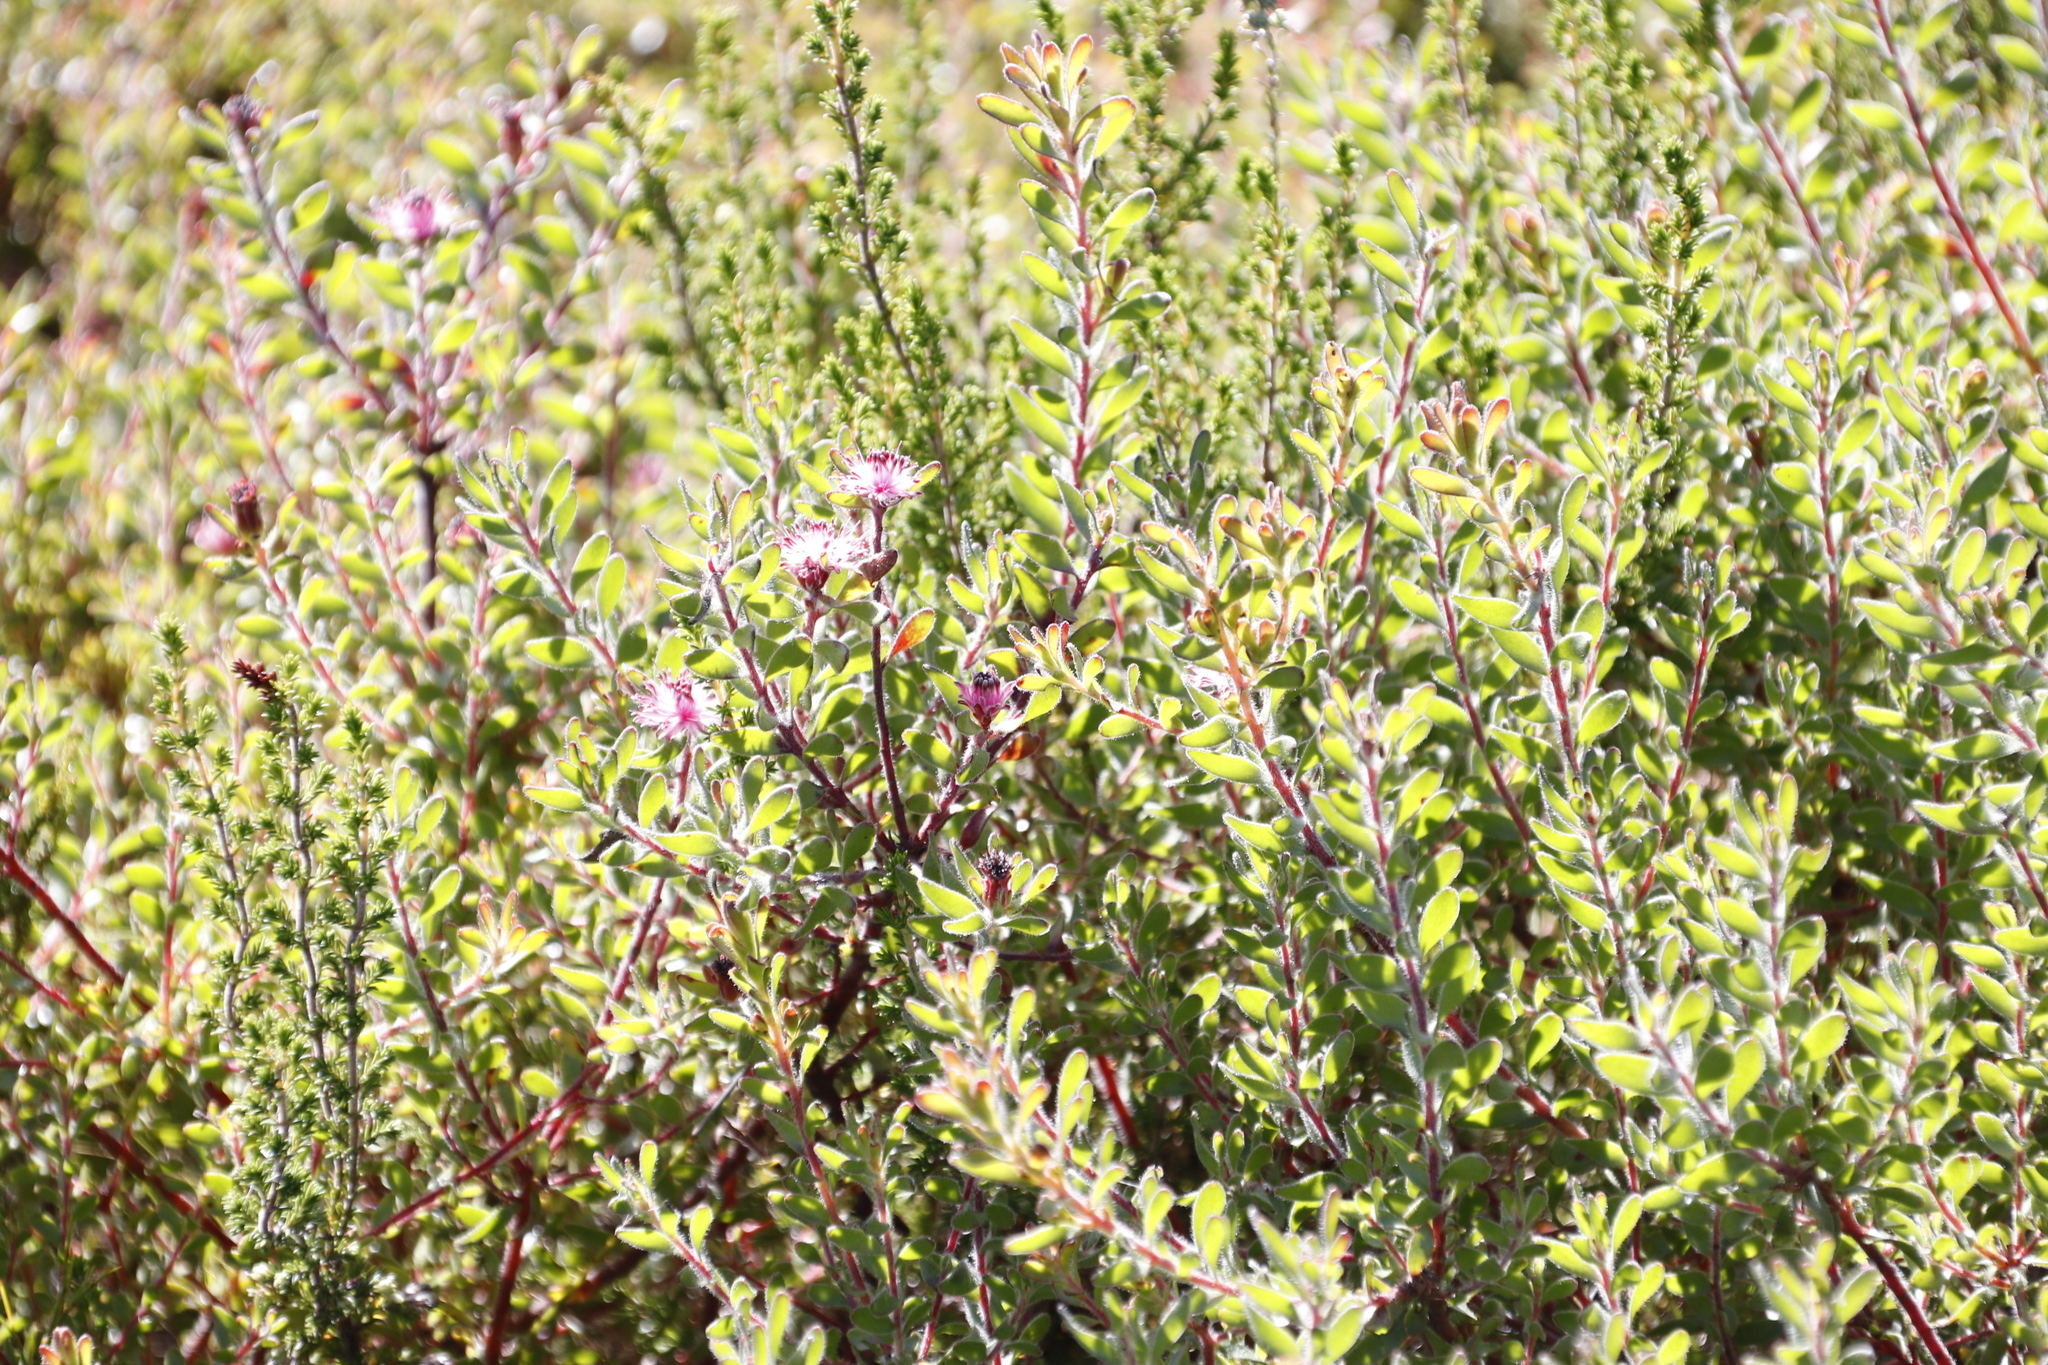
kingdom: Plantae
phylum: Tracheophyta
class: Magnoliopsida
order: Proteales
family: Proteaceae
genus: Diastella
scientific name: Diastella divaricata
